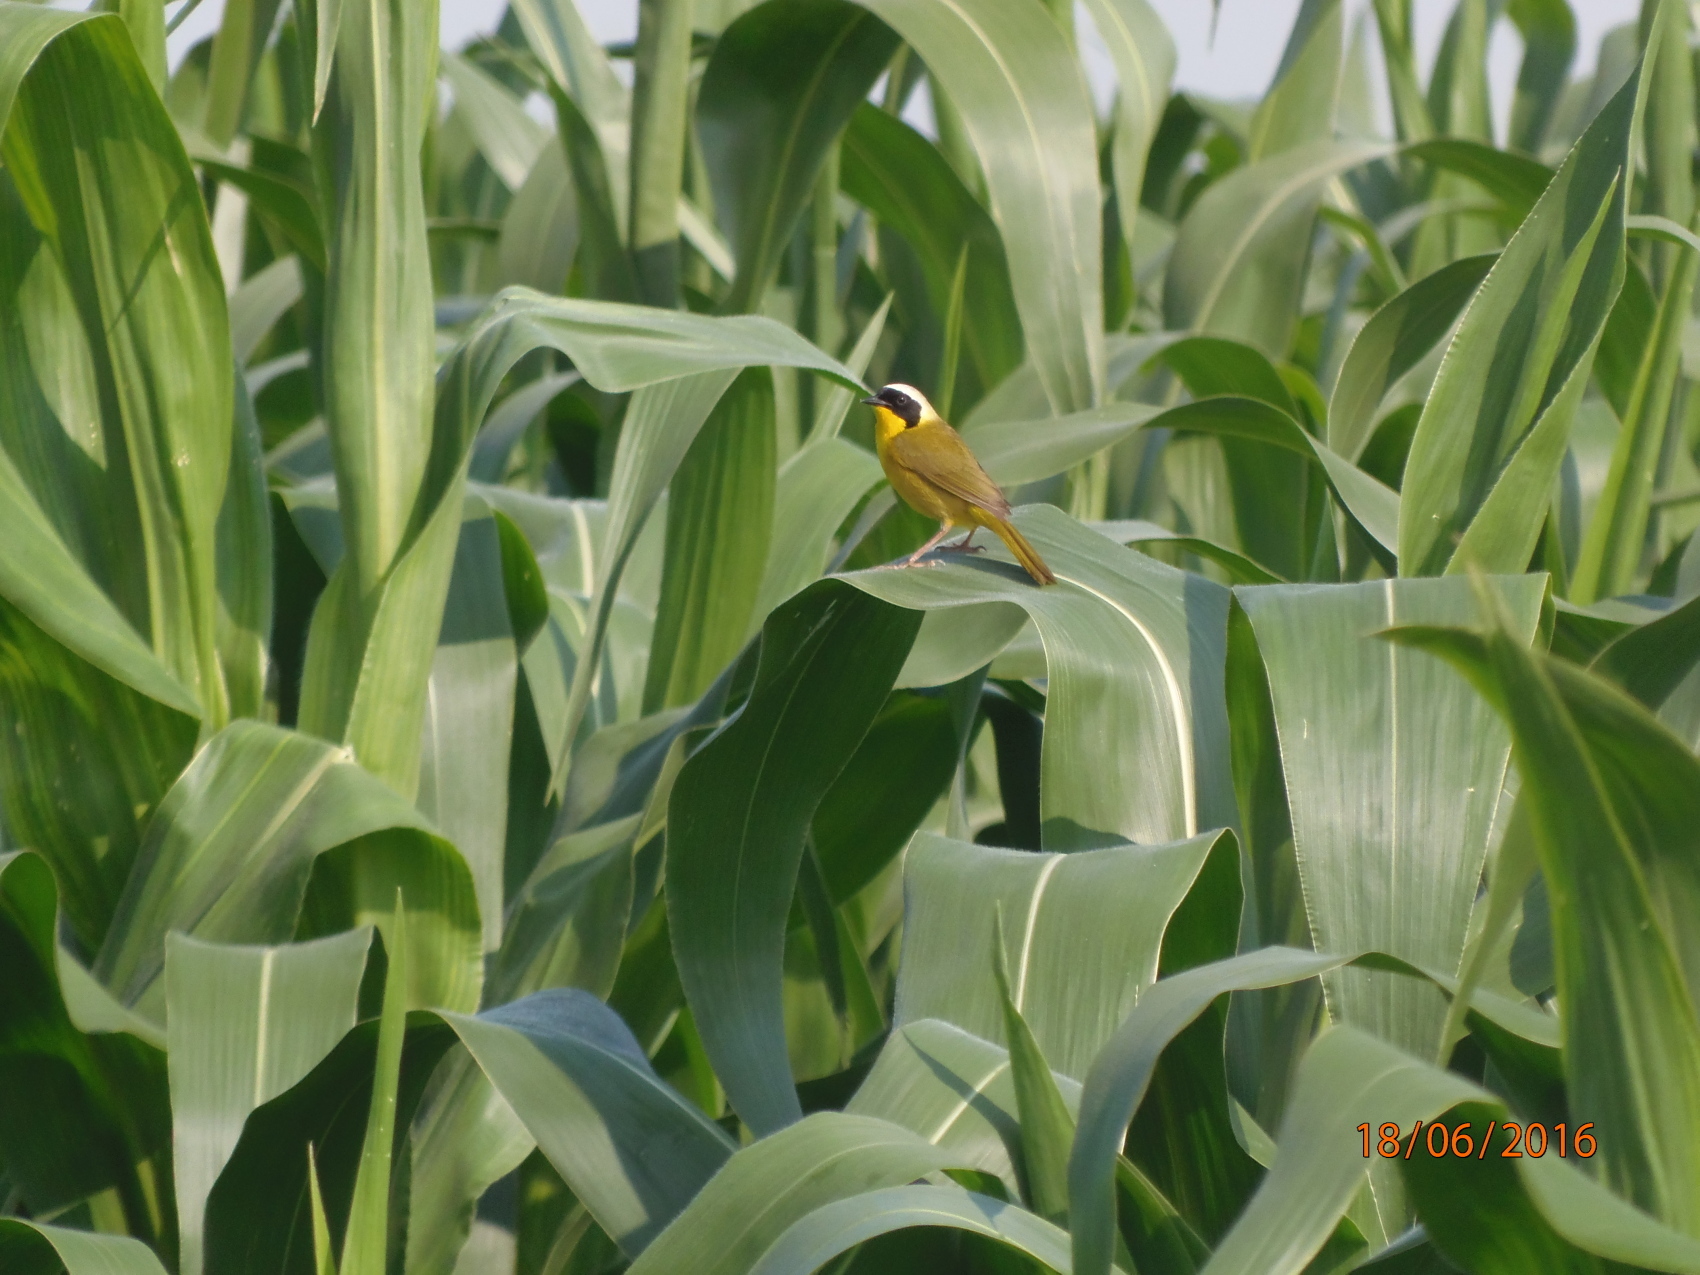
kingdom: Animalia
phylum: Chordata
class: Aves
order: Passeriformes
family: Parulidae
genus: Geothlypis
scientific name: Geothlypis trichas
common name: Common yellowthroat
